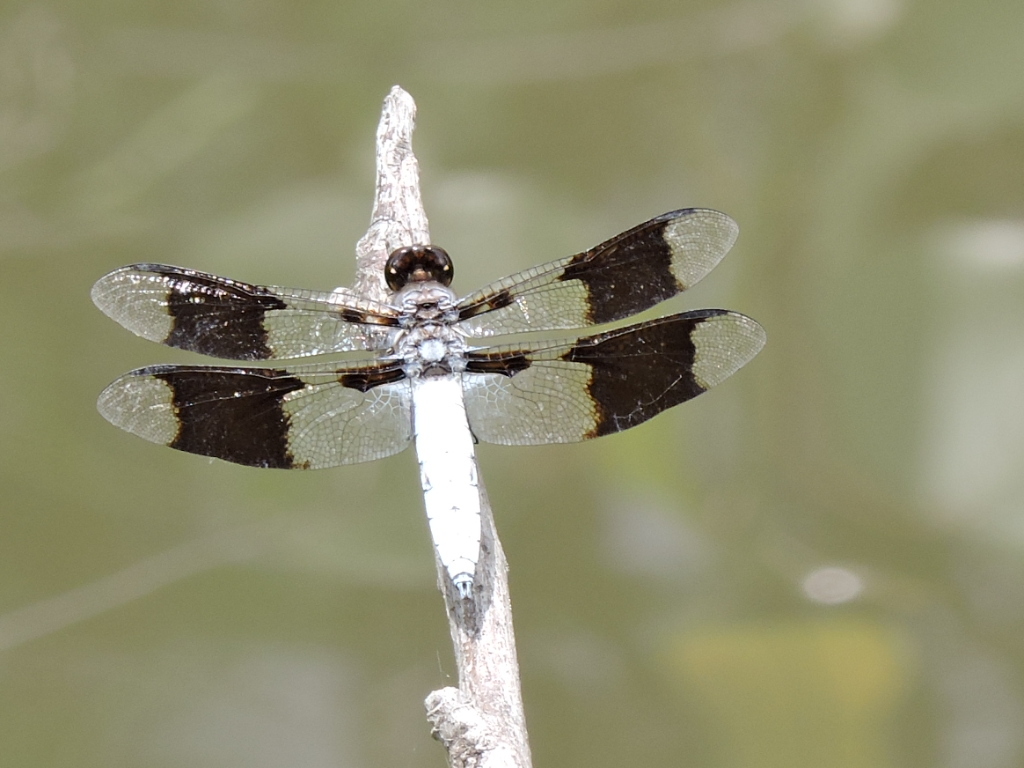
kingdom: Animalia
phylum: Arthropoda
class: Insecta
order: Odonata
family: Libellulidae
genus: Plathemis
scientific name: Plathemis lydia
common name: Common whitetail
